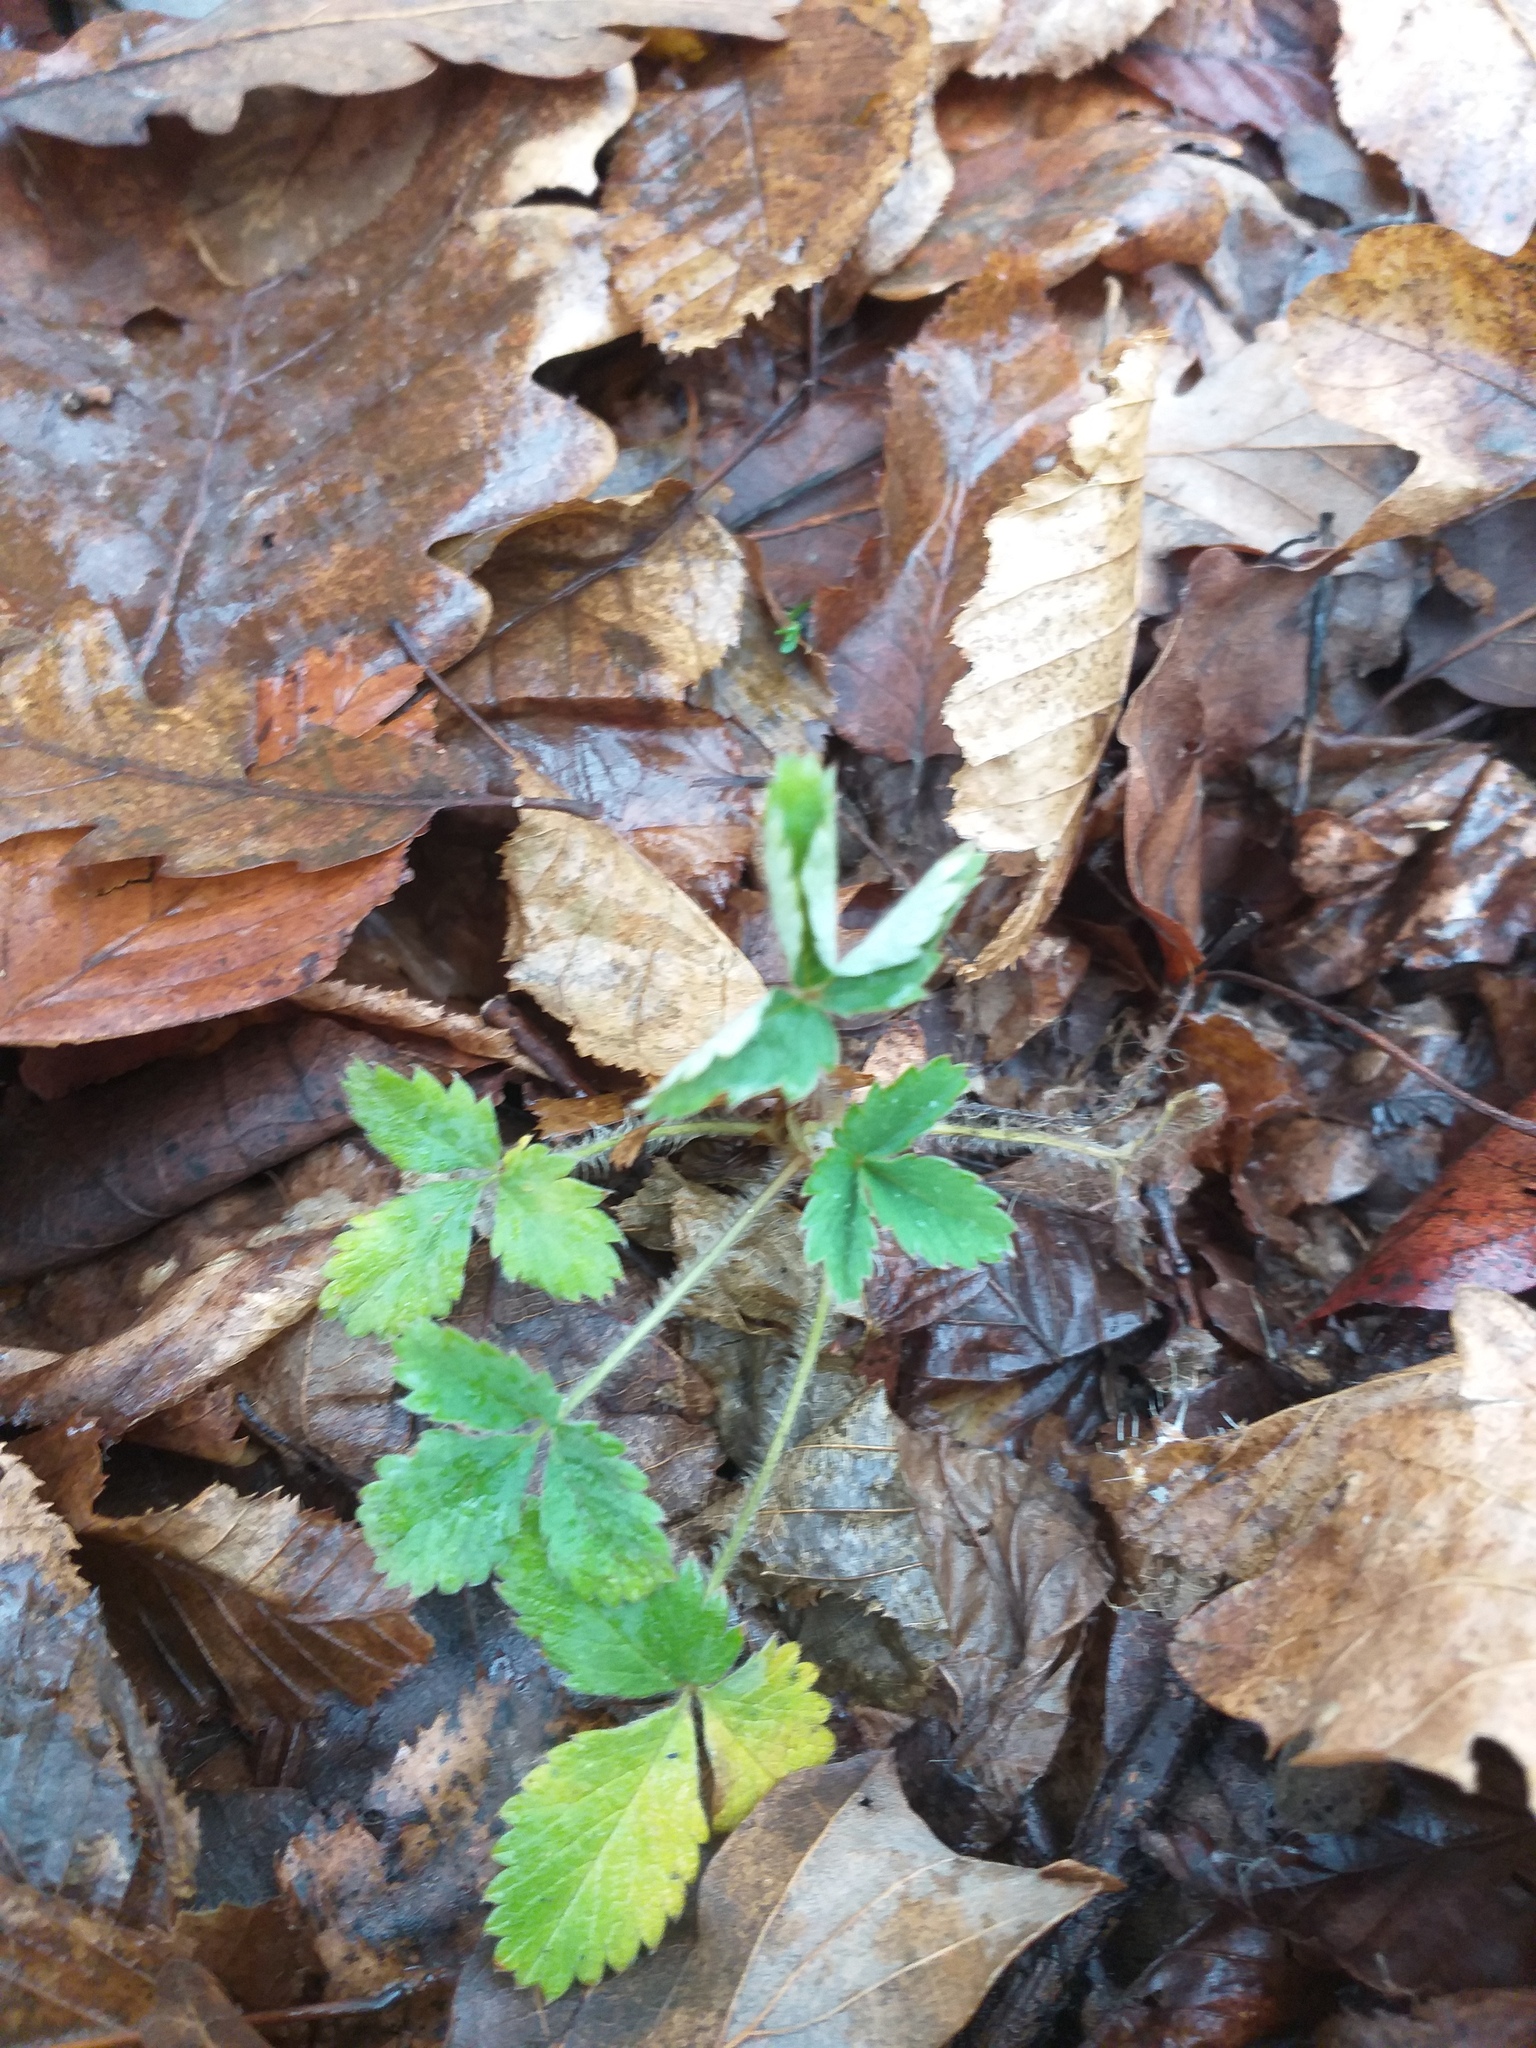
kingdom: Plantae
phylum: Tracheophyta
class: Magnoliopsida
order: Rosales
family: Rosaceae
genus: Potentilla
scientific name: Potentilla micrantha
